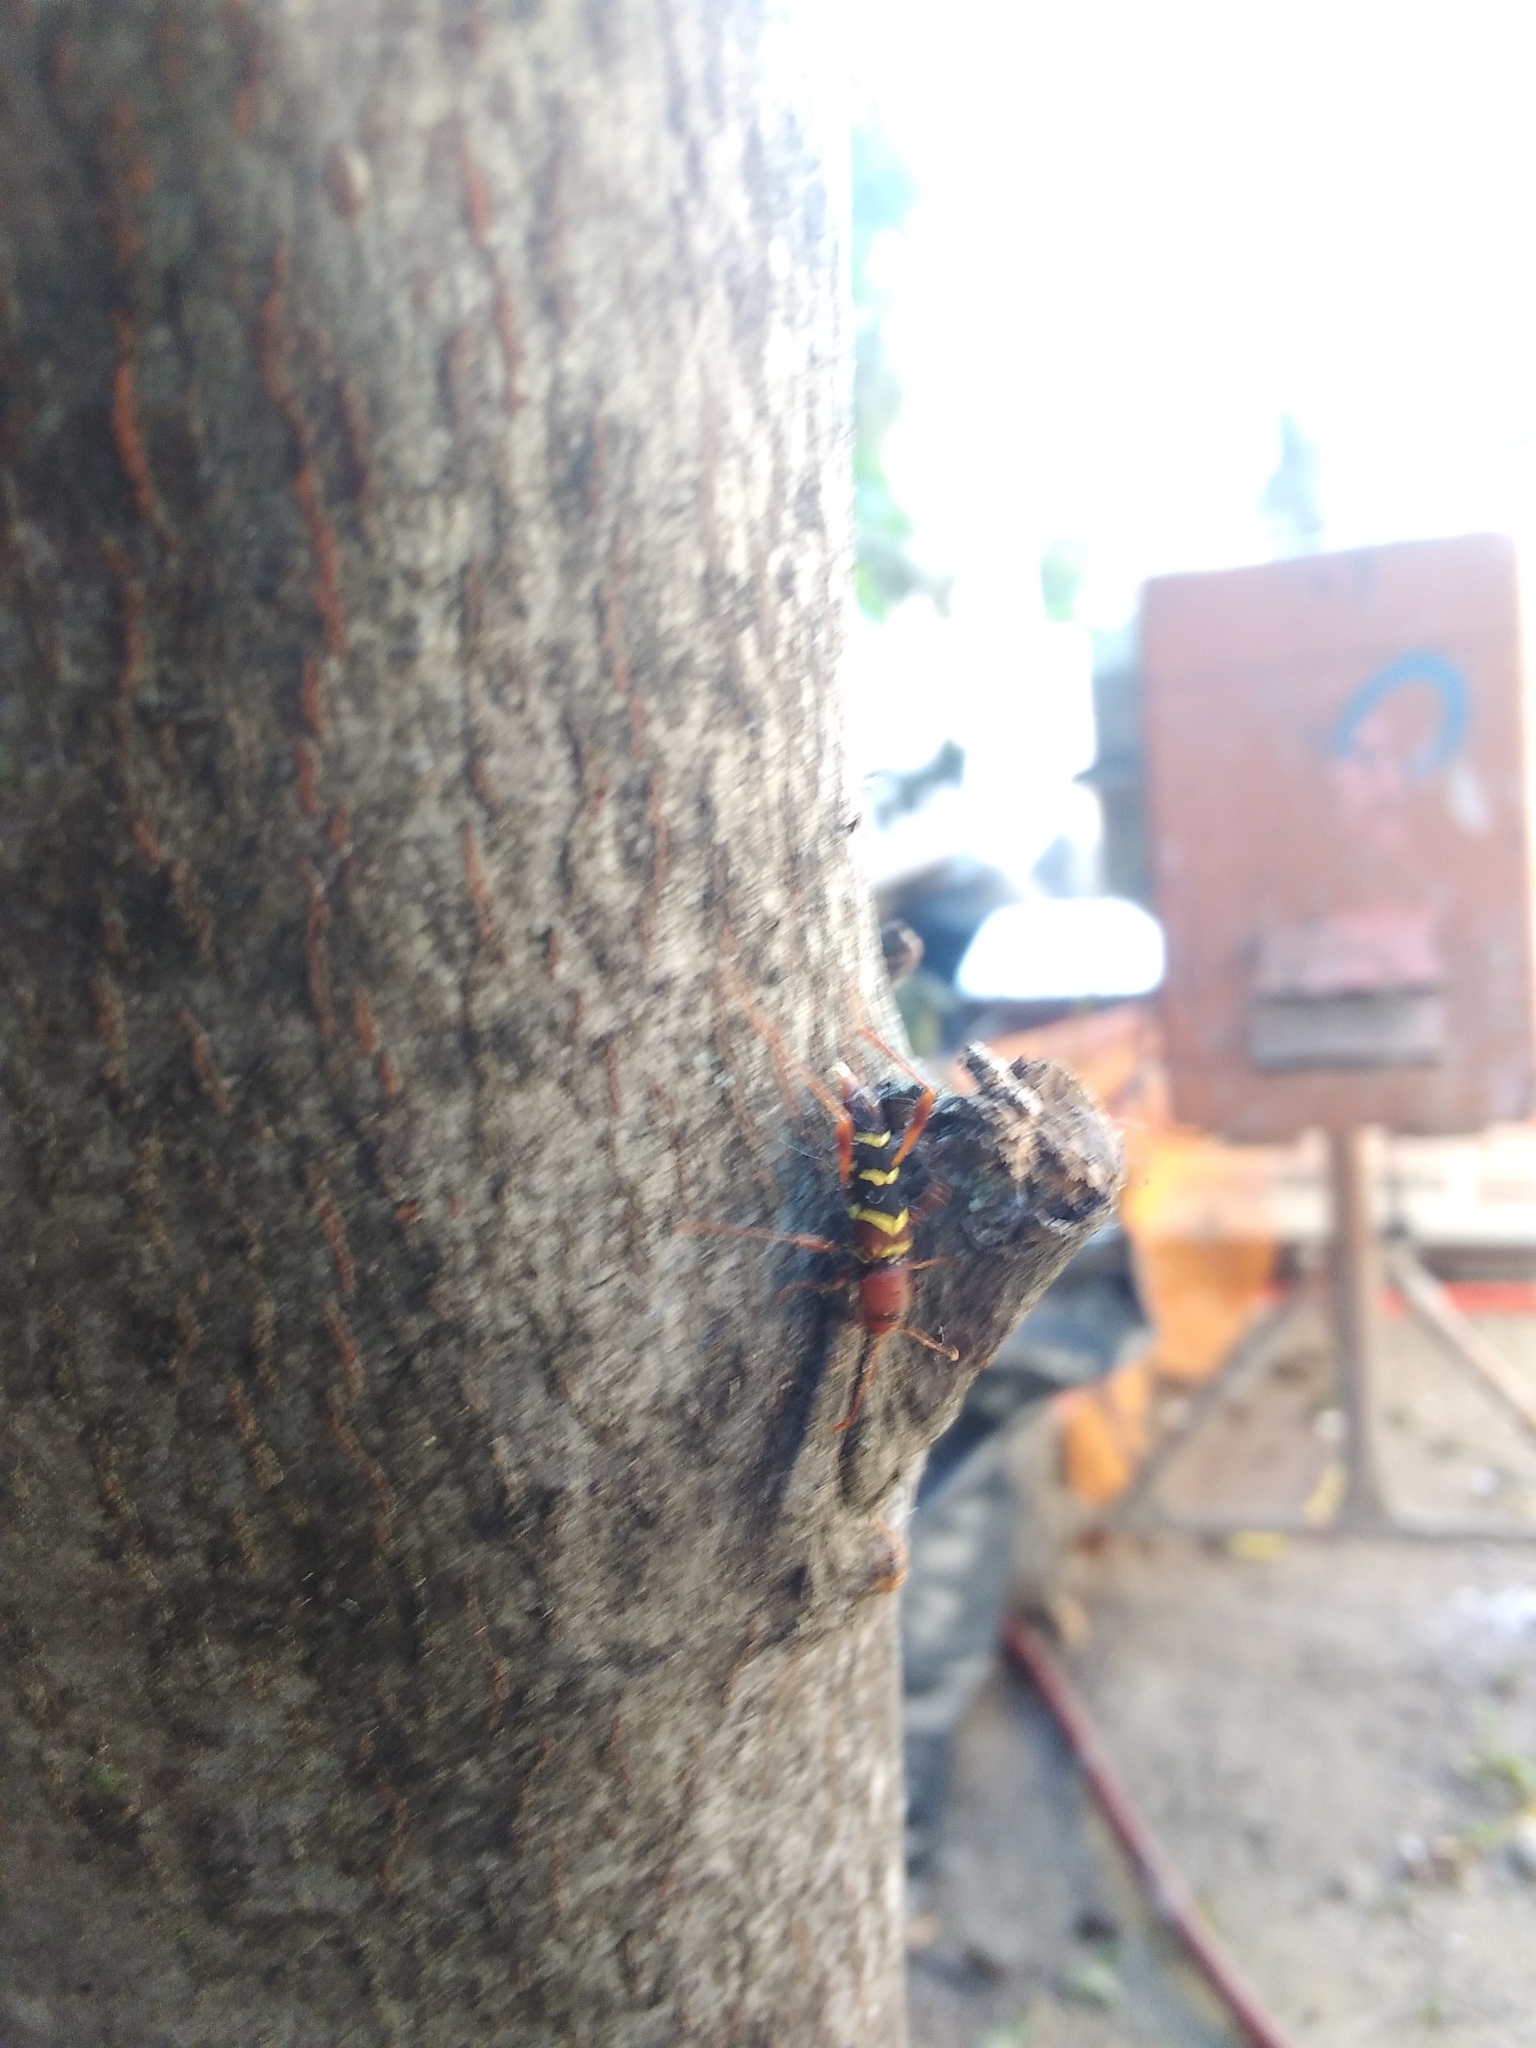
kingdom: Animalia
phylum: Arthropoda
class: Insecta
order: Coleoptera
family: Cerambycidae
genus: Neoclytus
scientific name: Neoclytus acuminatus
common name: Read-headed ash borer
